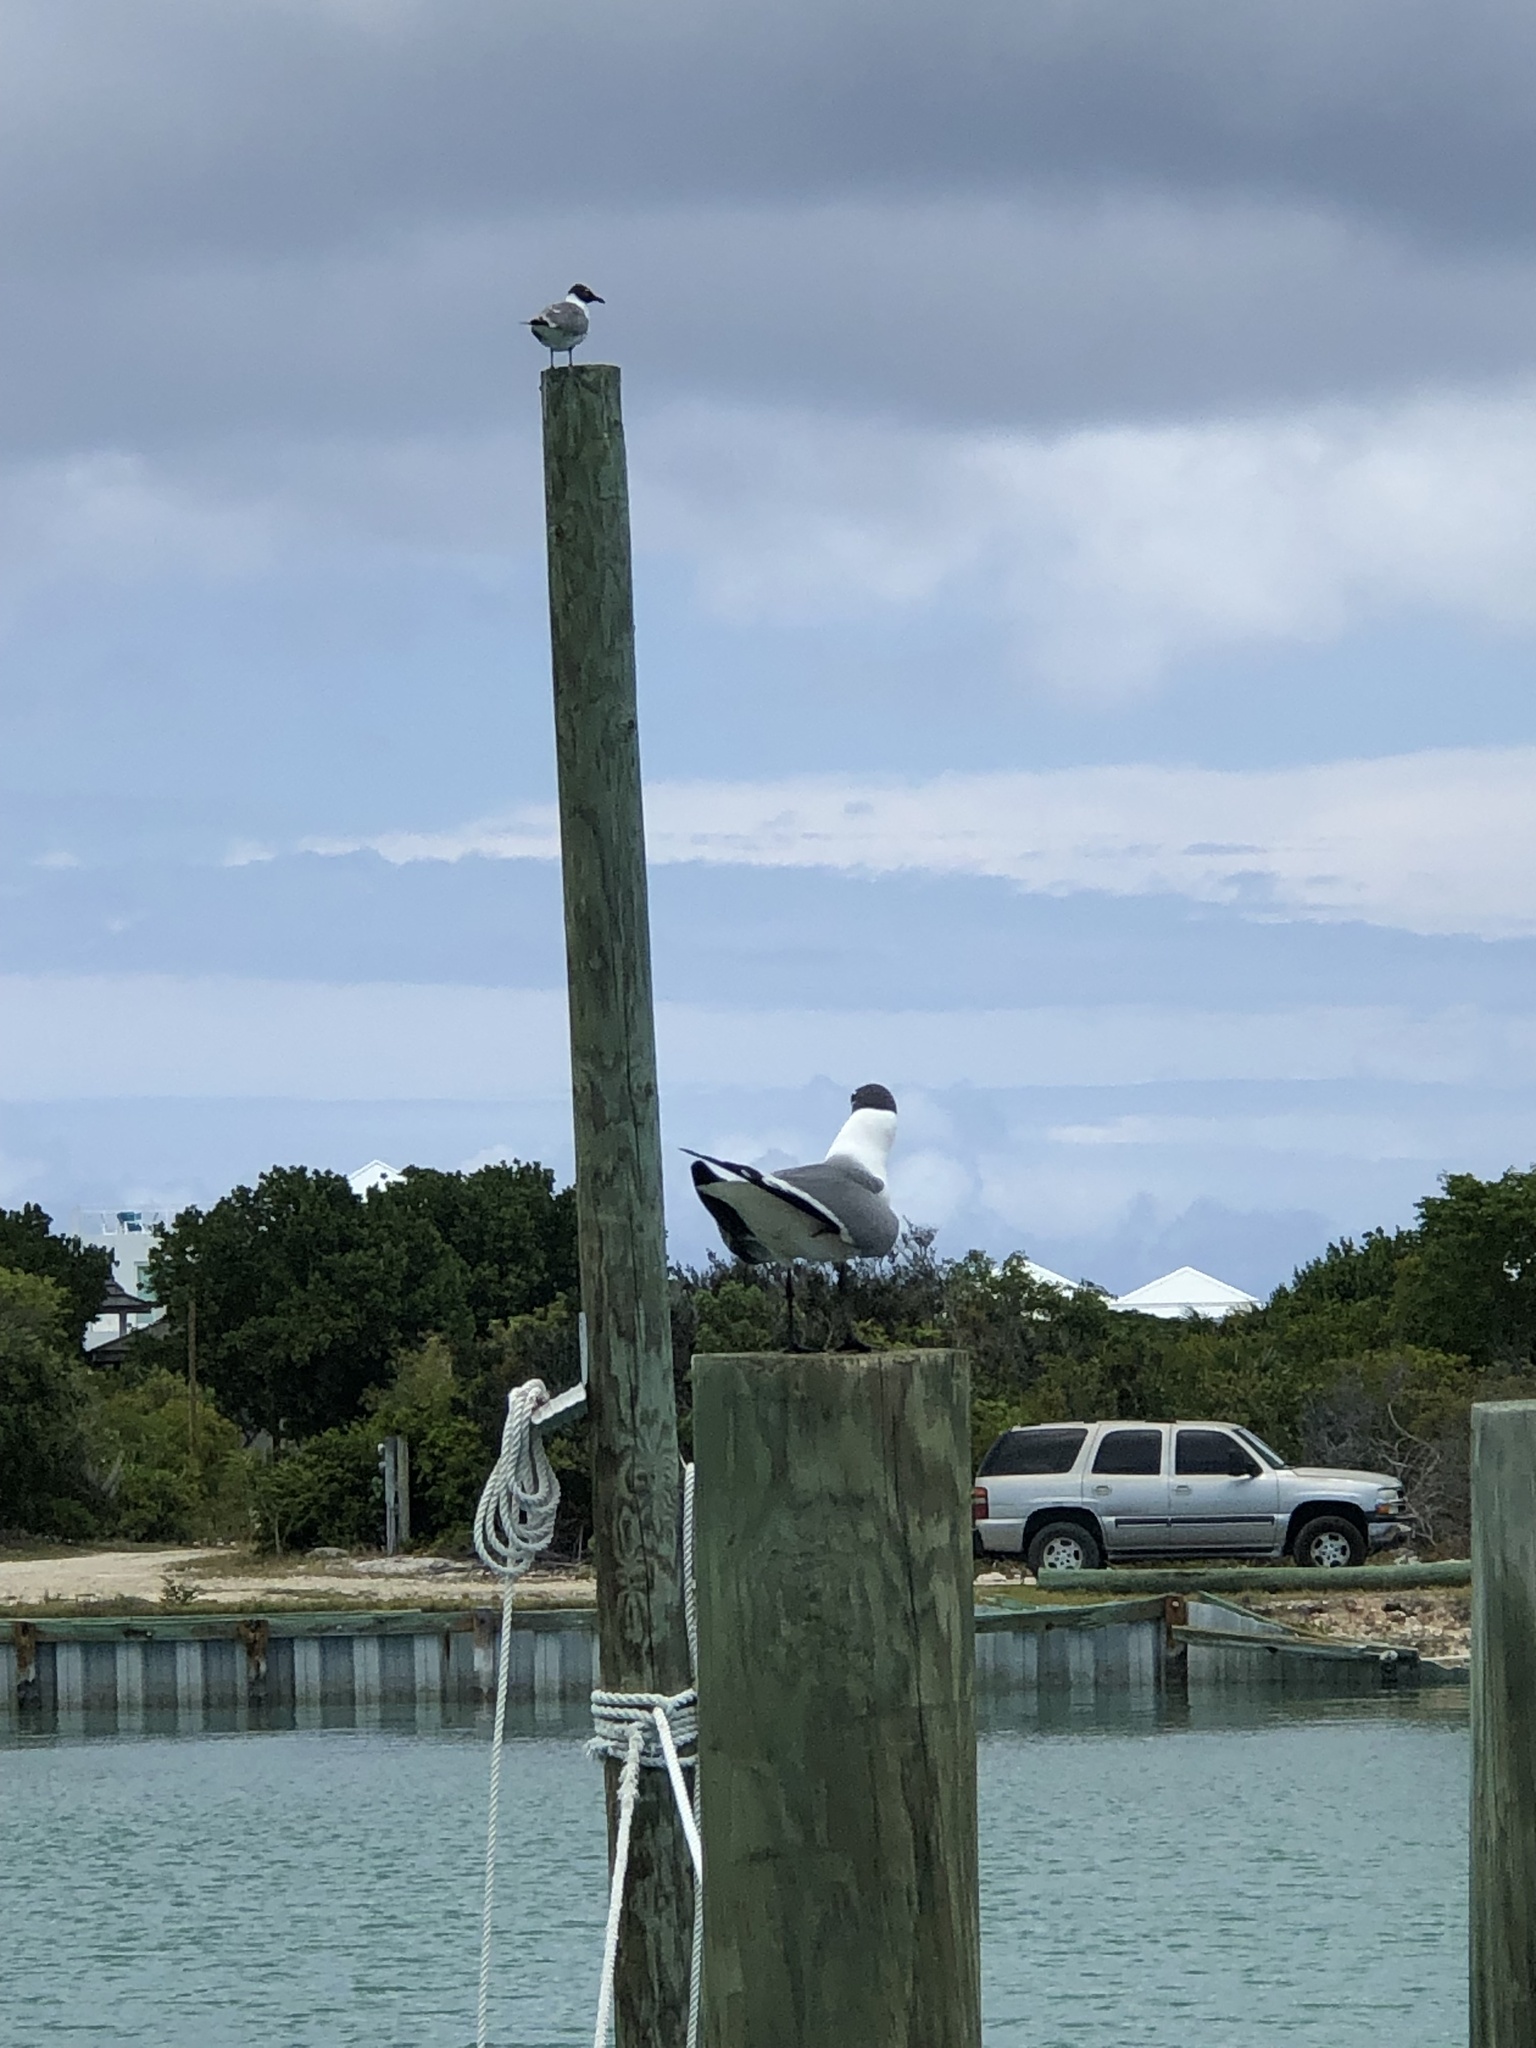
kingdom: Animalia
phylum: Chordata
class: Aves
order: Charadriiformes
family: Laridae
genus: Leucophaeus
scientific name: Leucophaeus atricilla
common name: Laughing gull
